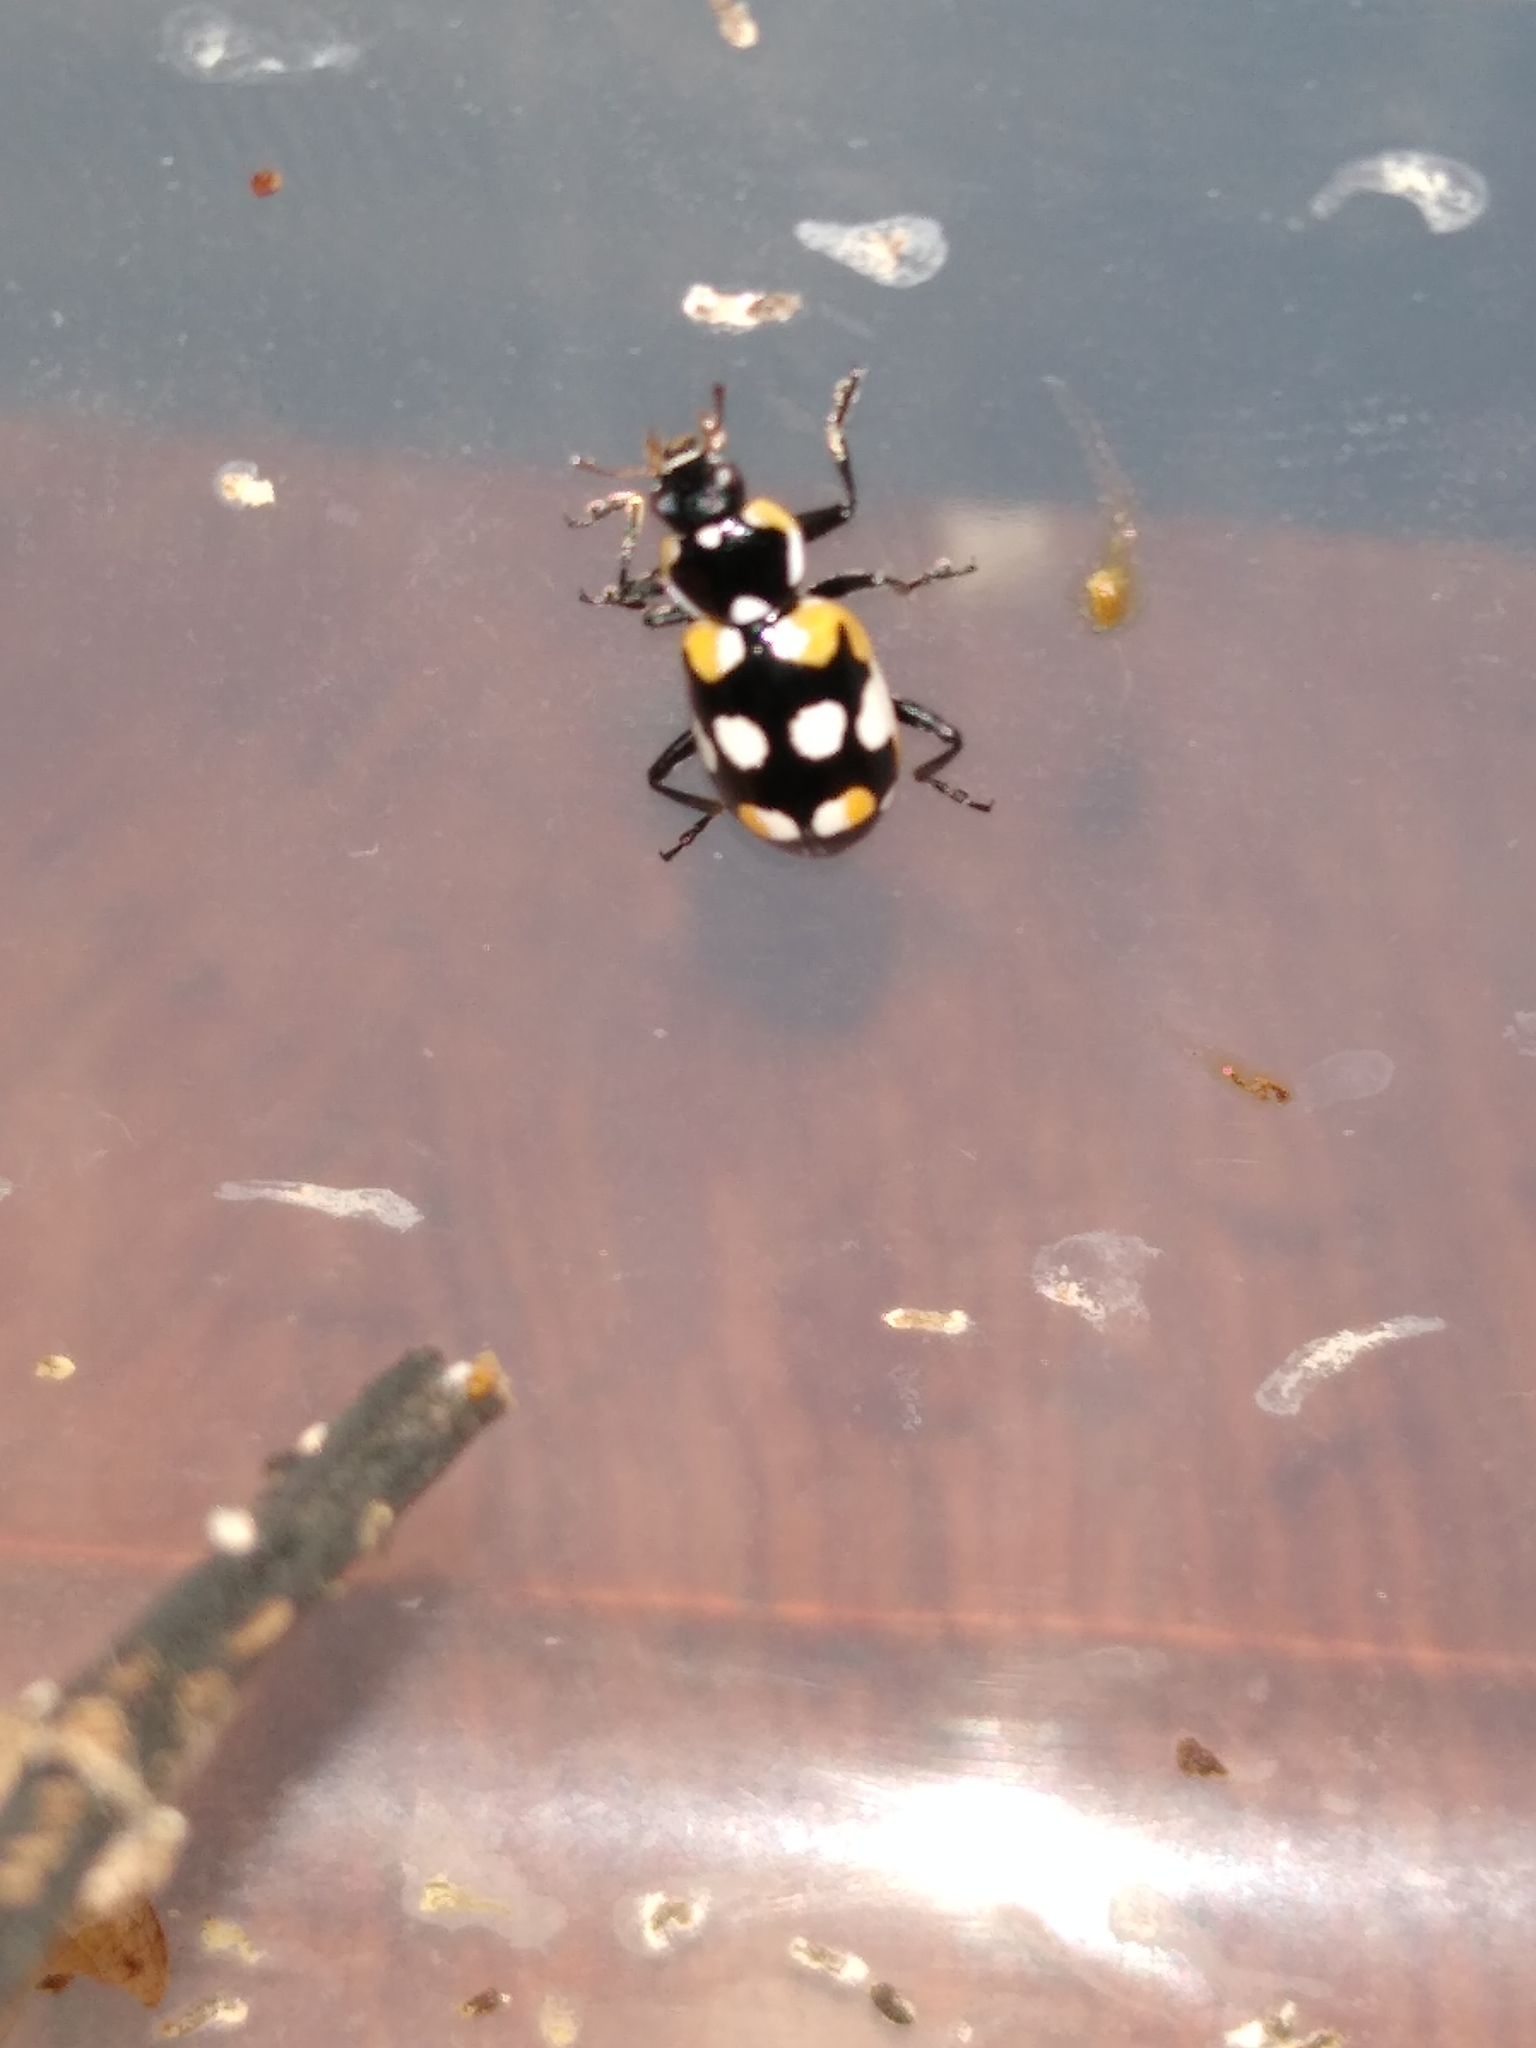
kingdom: Animalia
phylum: Arthropoda
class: Insecta
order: Coleoptera
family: Coccinellidae
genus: Eriopis
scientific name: Eriopis connexa
